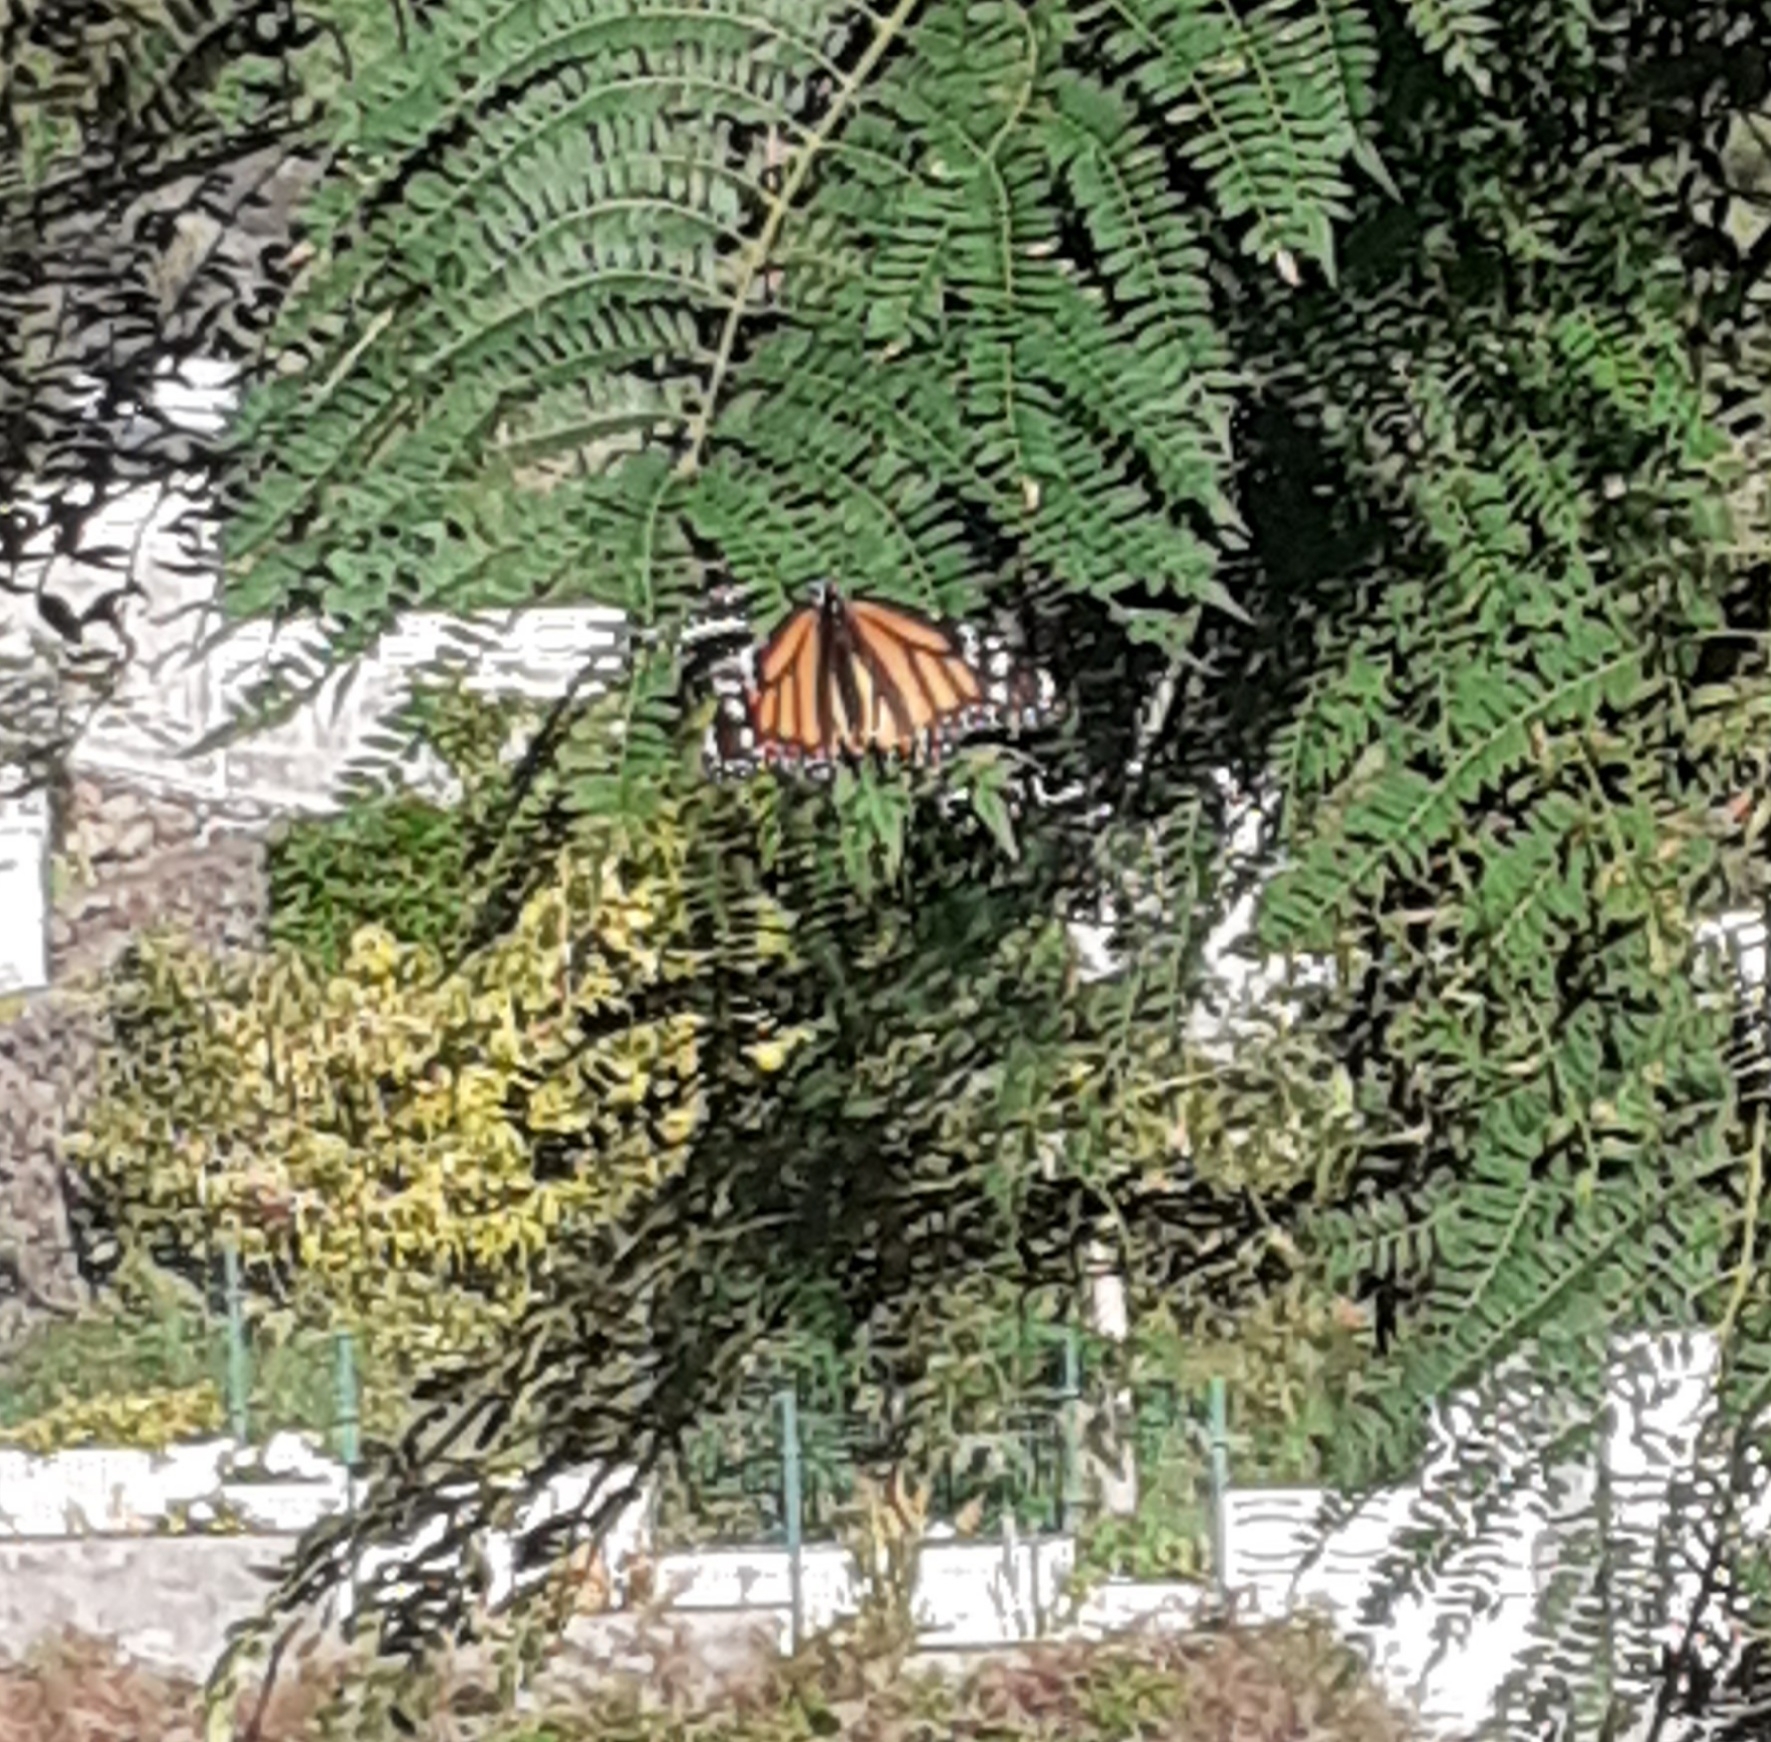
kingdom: Animalia
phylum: Arthropoda
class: Insecta
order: Lepidoptera
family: Nymphalidae
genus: Danaus
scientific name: Danaus plexippus
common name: Monarch
